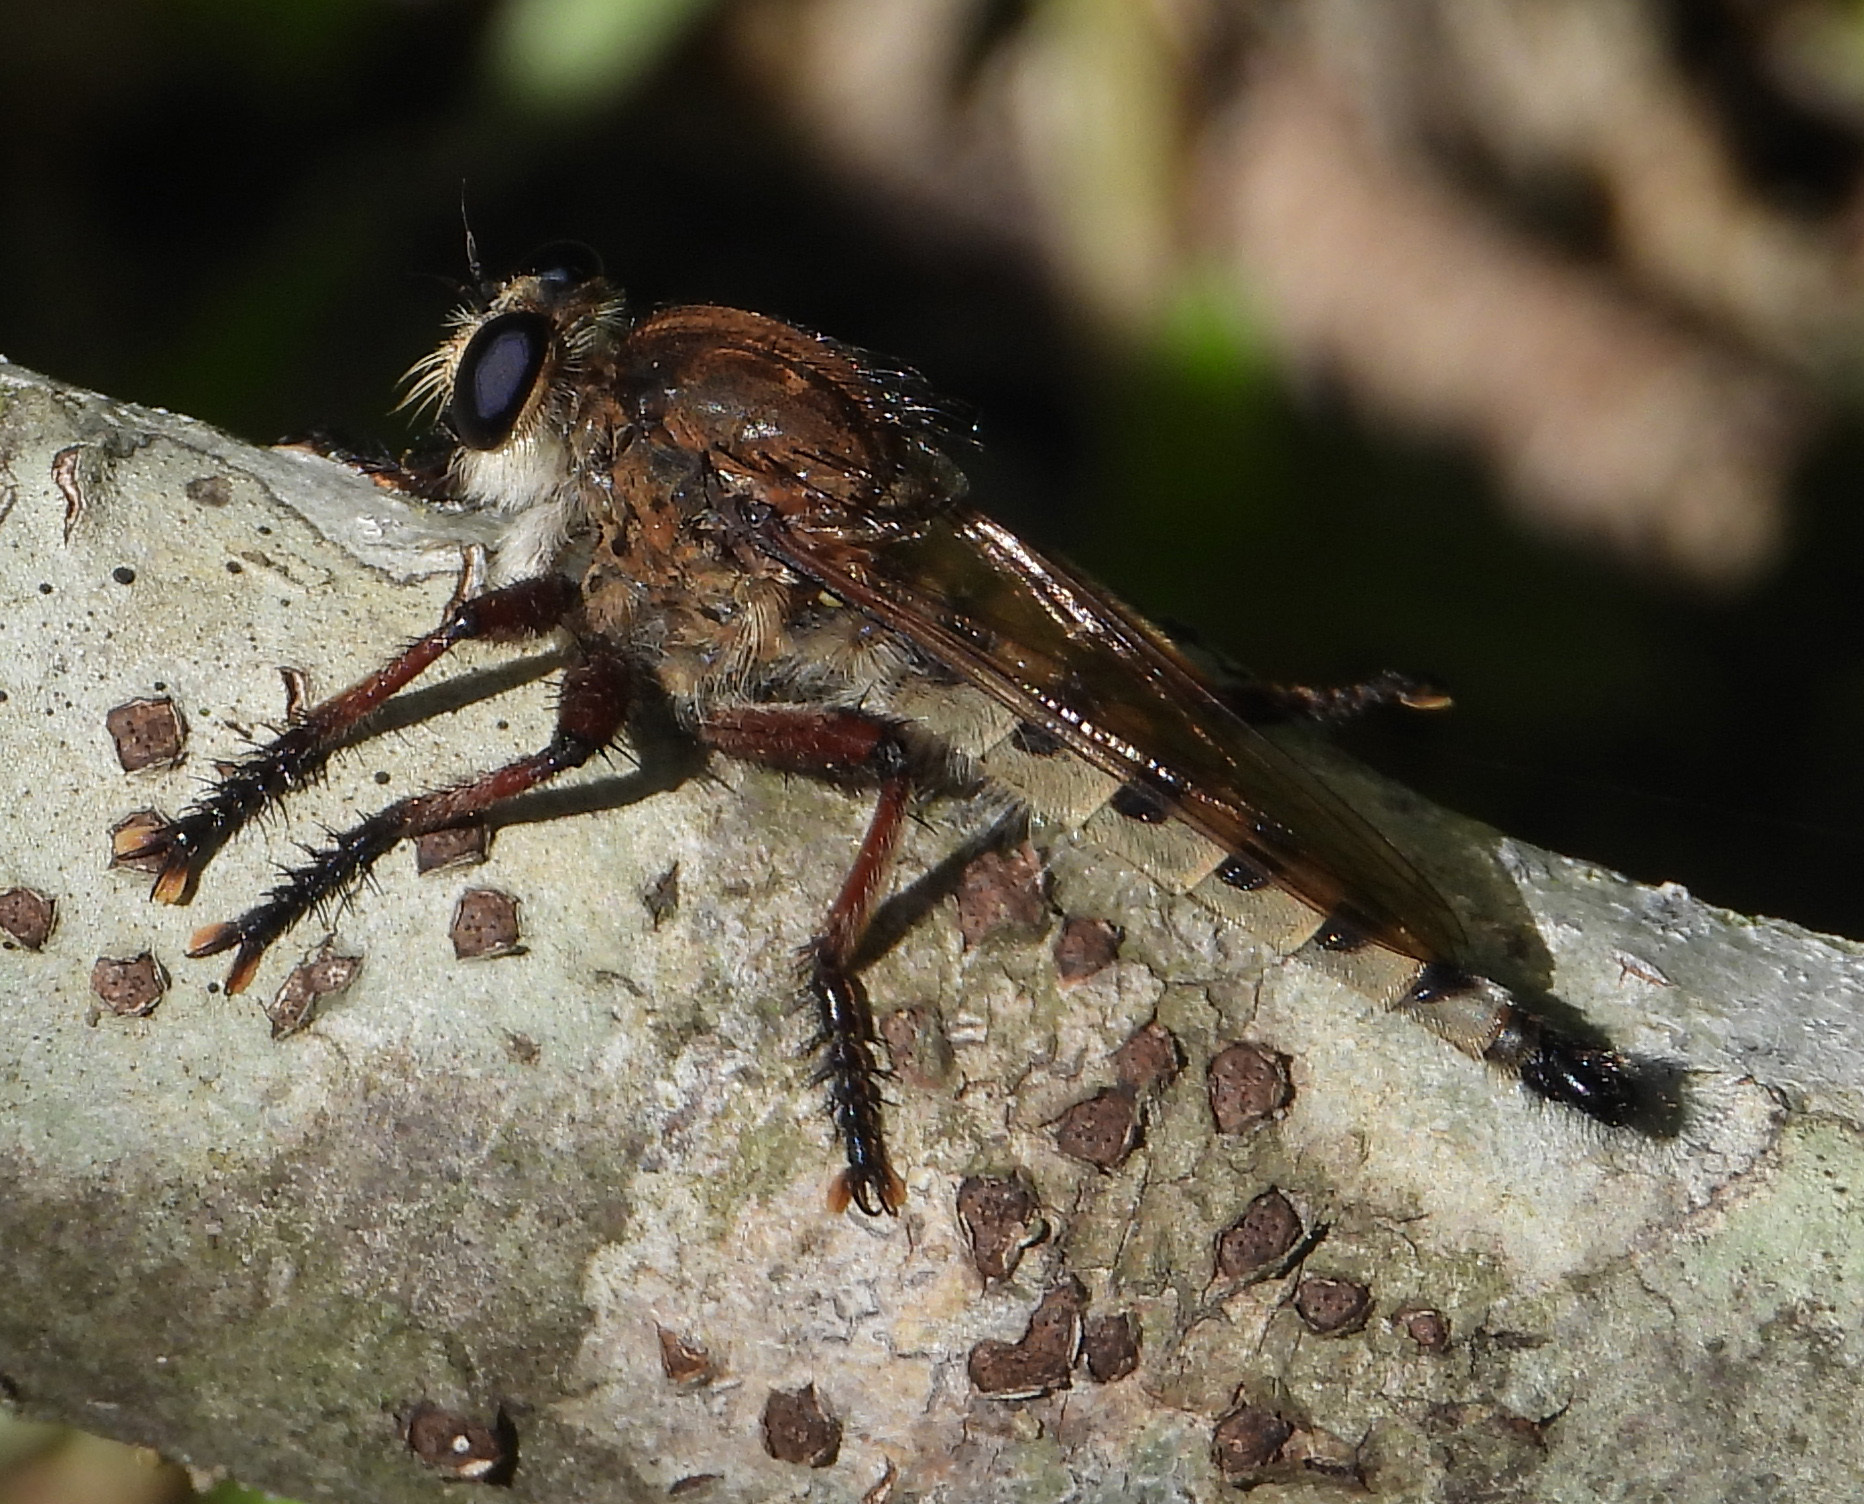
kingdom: Animalia
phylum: Arthropoda
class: Insecta
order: Diptera
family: Asilidae
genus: Promachus
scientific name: Promachus hinei
